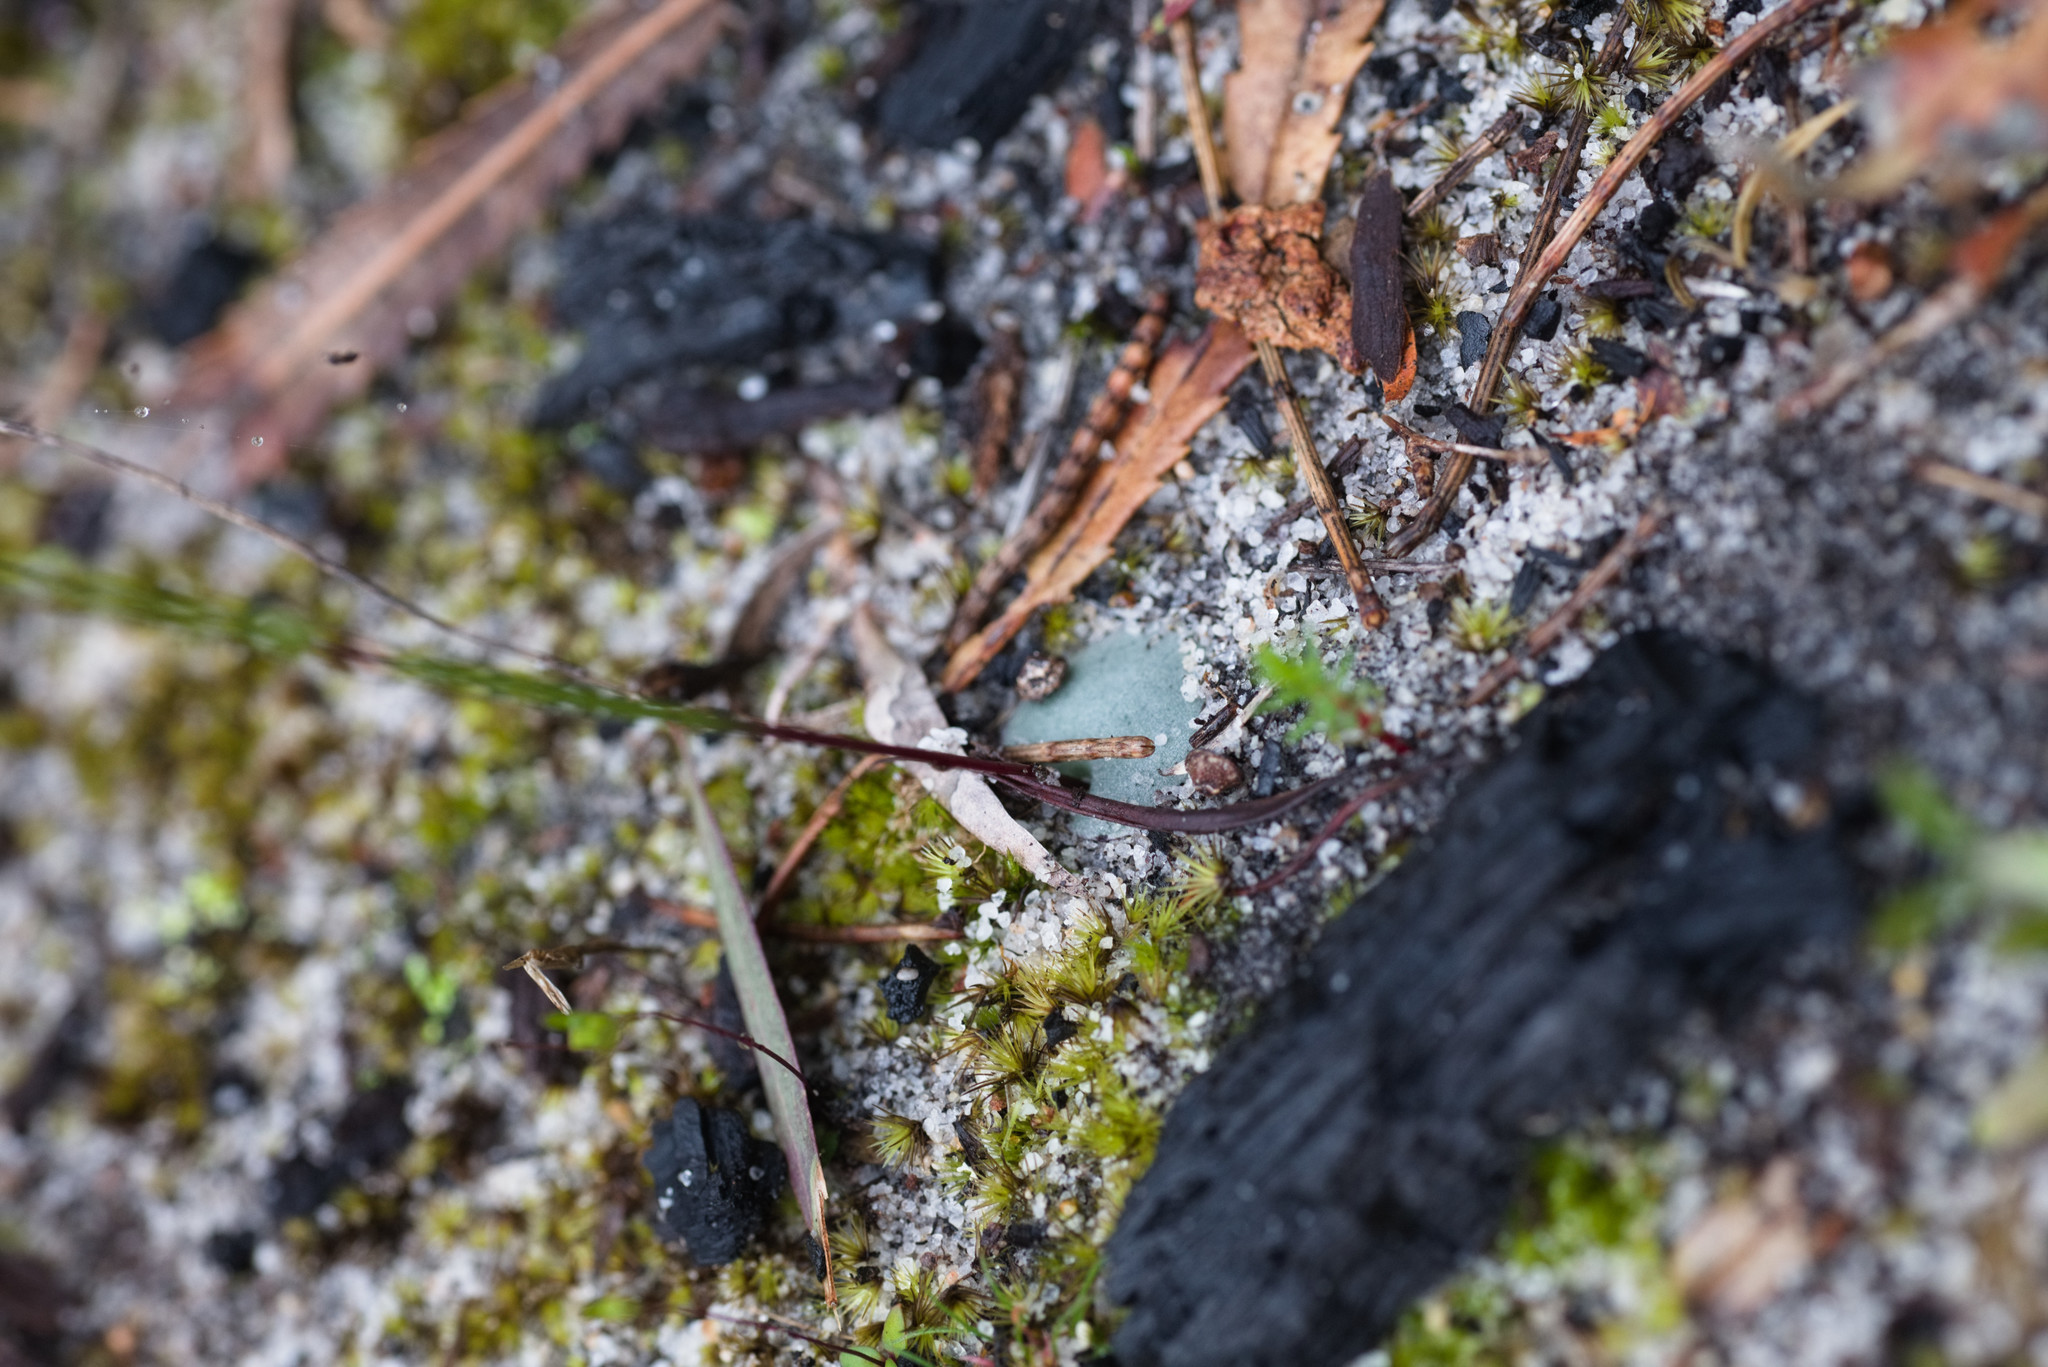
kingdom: Plantae
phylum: Tracheophyta
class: Liliopsida
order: Asparagales
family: Orchidaceae
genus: Drakaea
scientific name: Drakaea glyptodon
